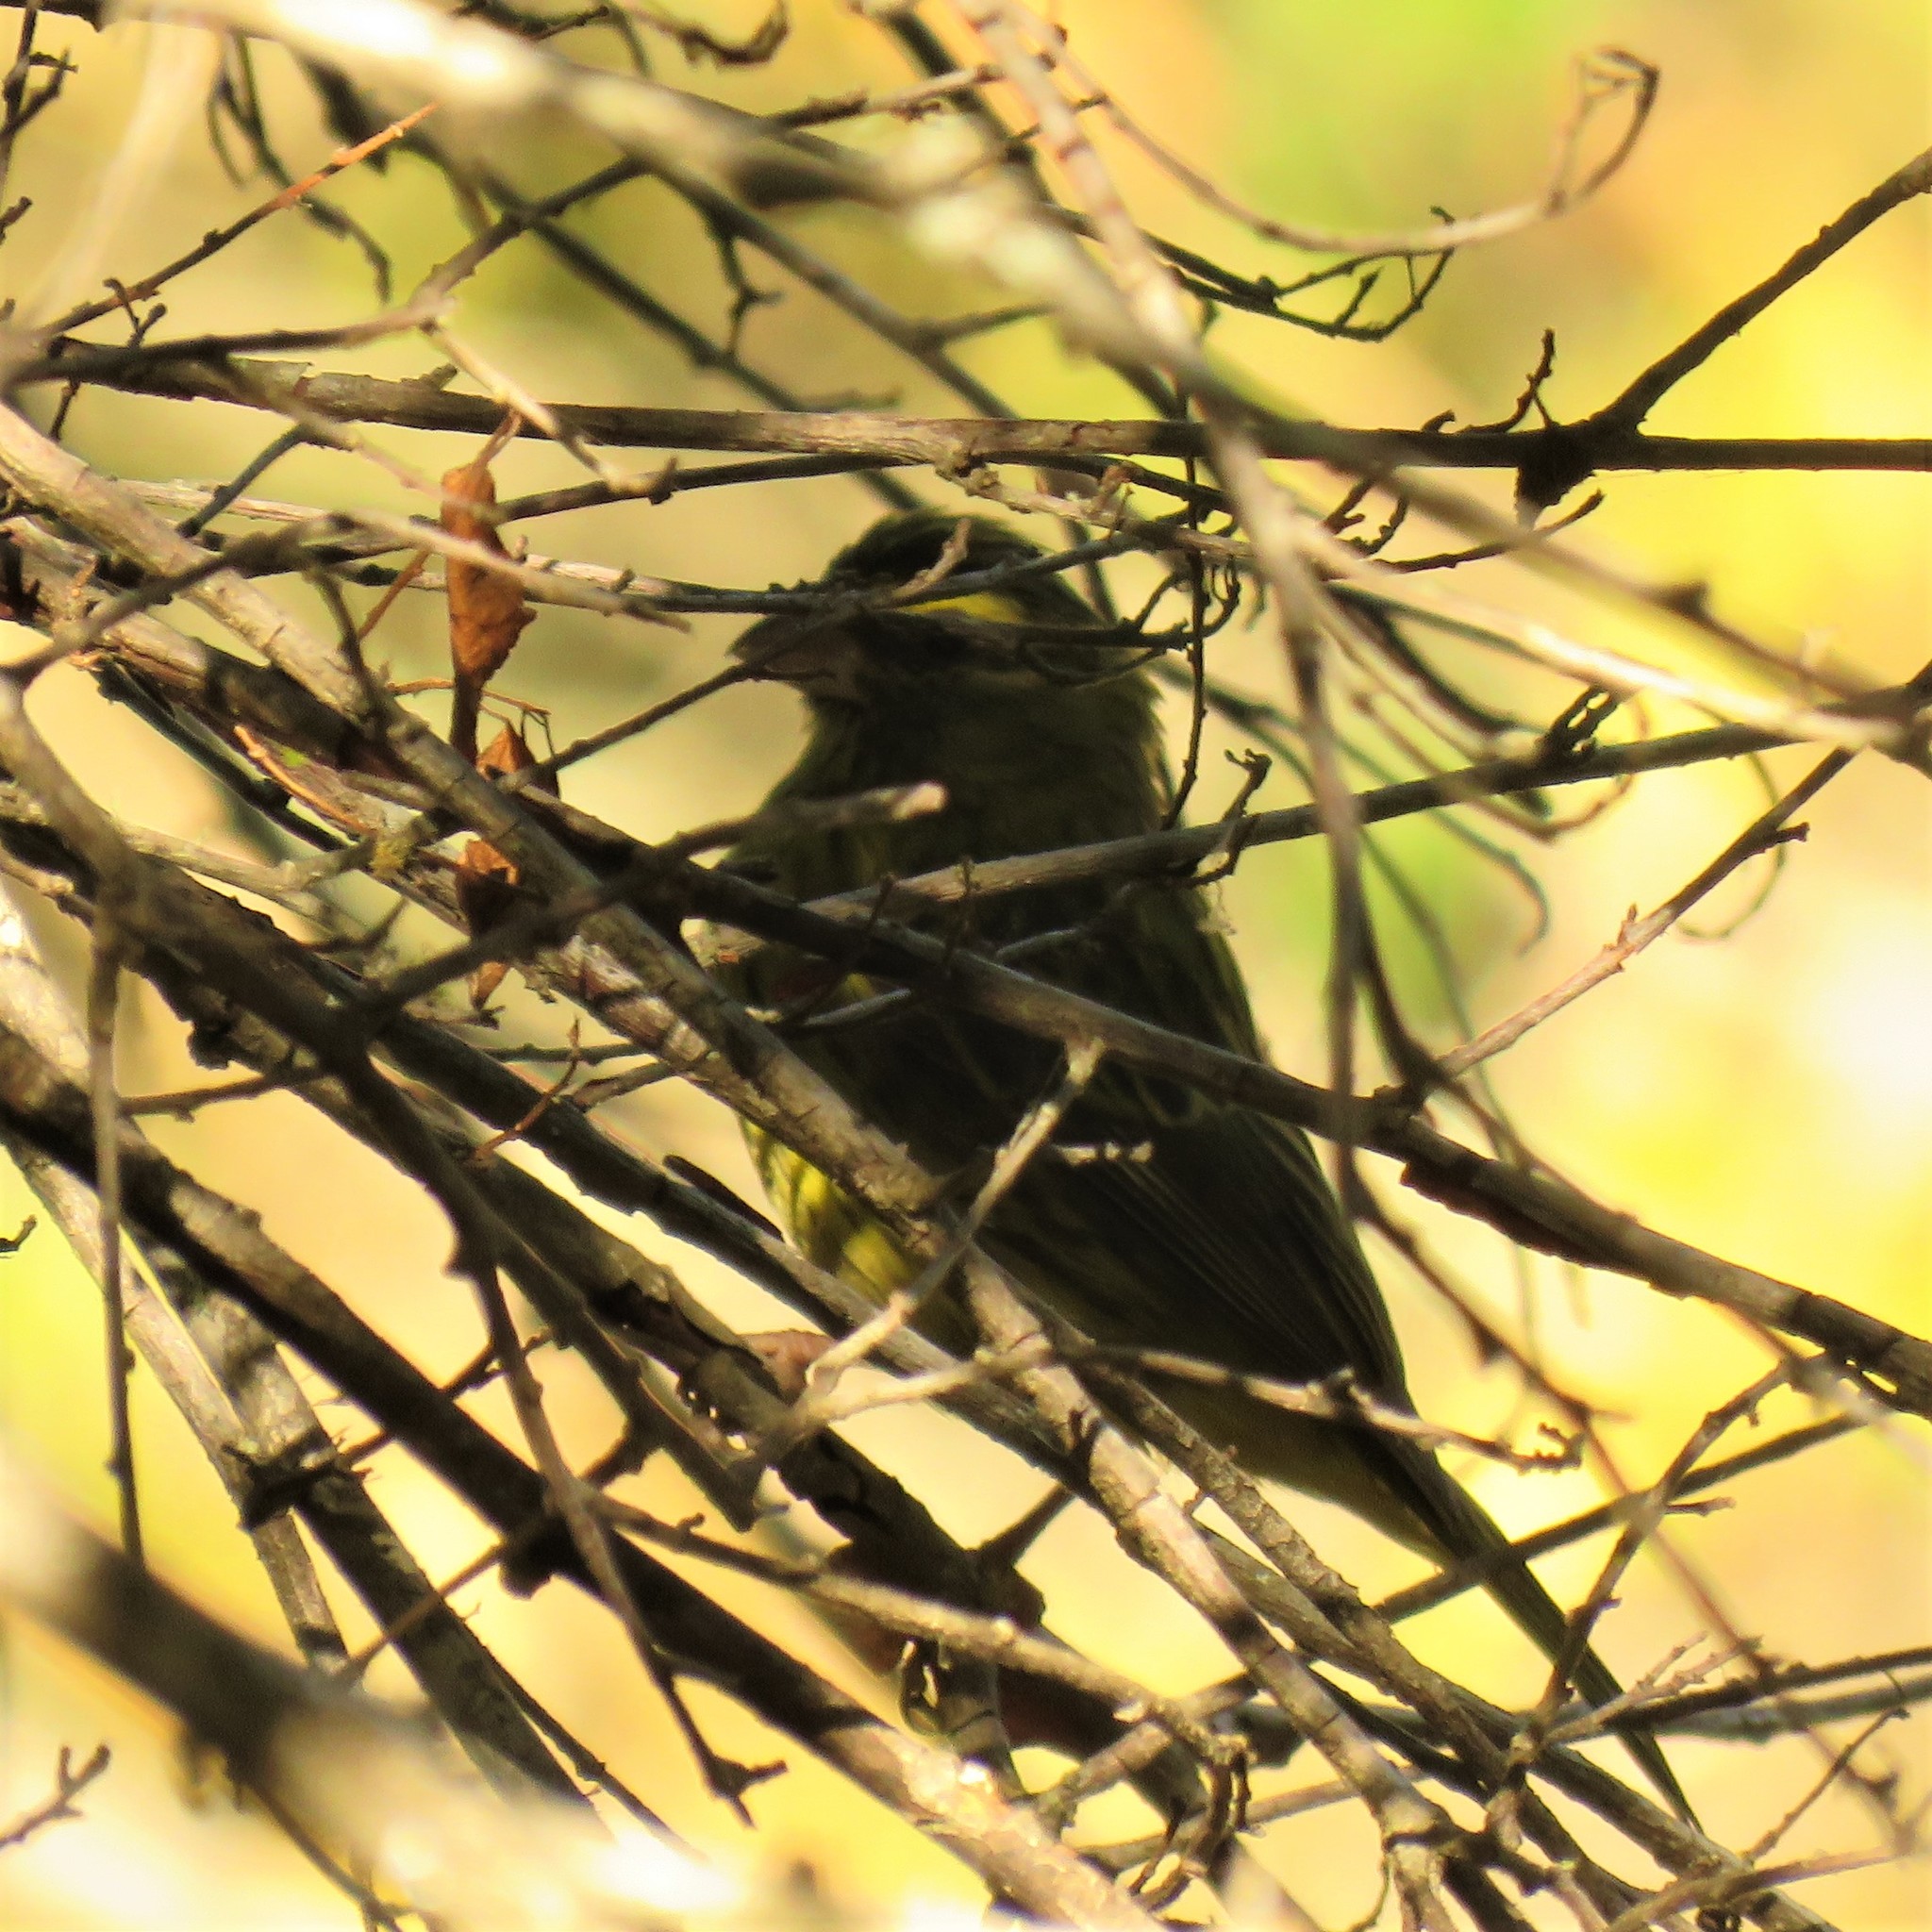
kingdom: Animalia
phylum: Chordata
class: Aves
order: Passeriformes
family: Fringillidae
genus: Crithagra
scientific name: Crithagra scotops
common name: Forest canary
